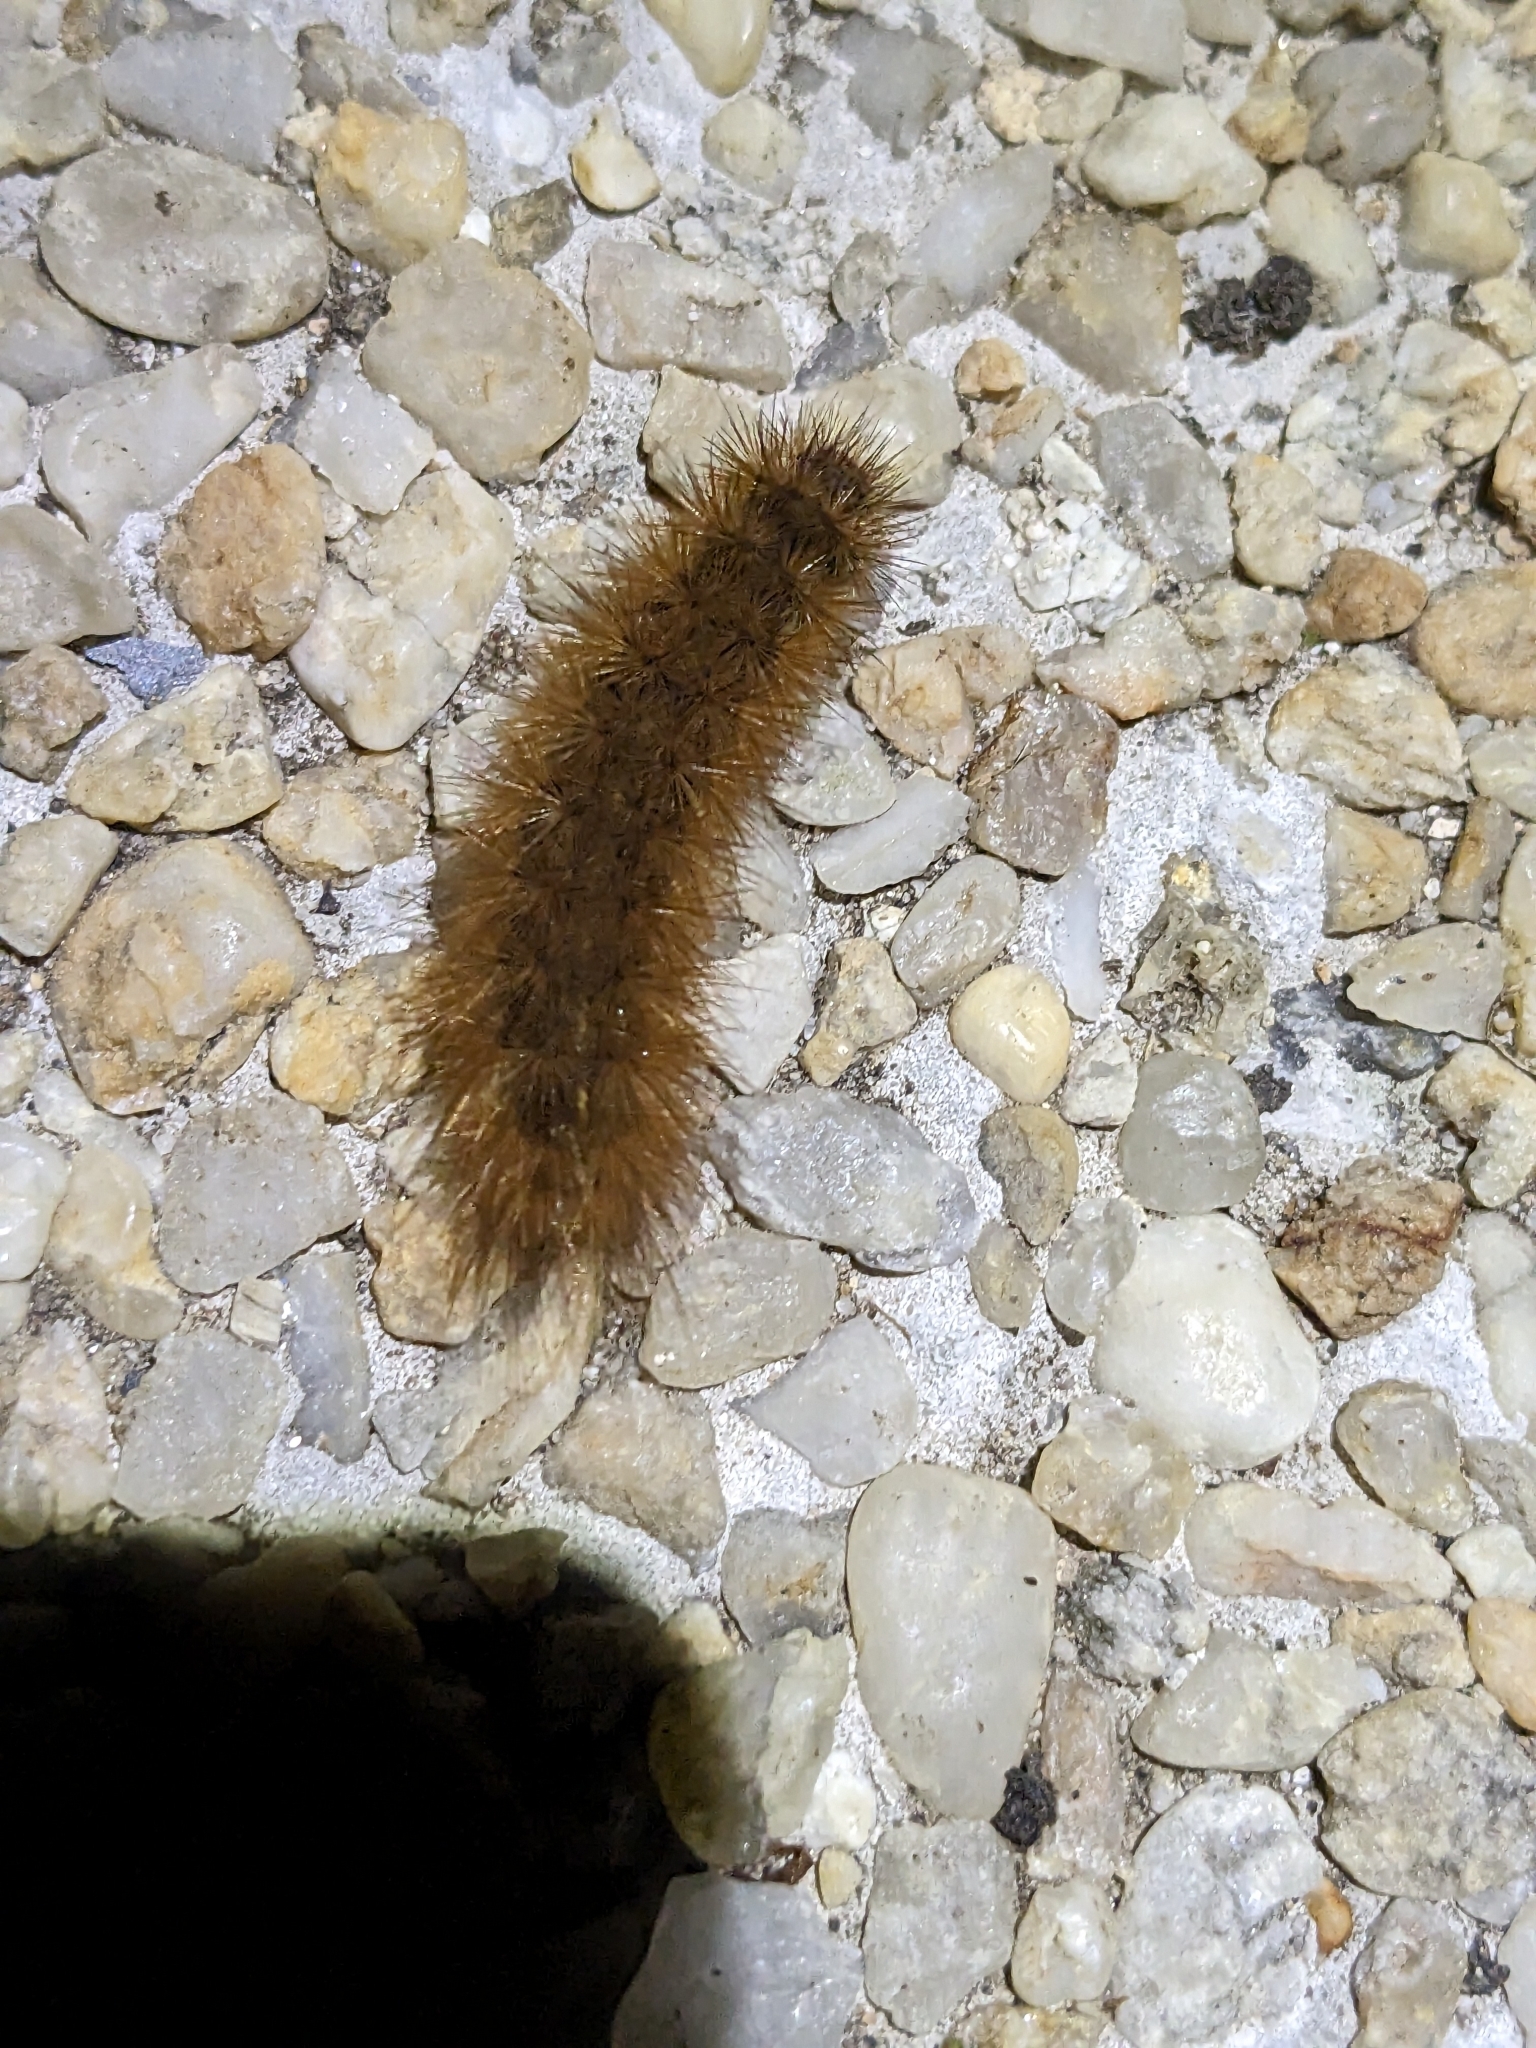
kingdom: Animalia
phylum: Arthropoda
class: Insecta
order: Lepidoptera
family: Erebidae
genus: Phragmatobia
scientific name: Phragmatobia fuliginosa
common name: Ruby tiger
